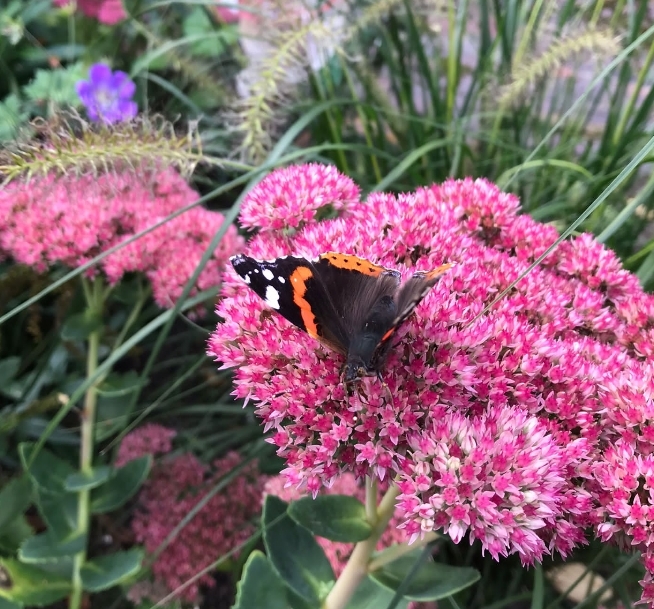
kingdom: Animalia
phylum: Arthropoda
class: Insecta
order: Lepidoptera
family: Nymphalidae
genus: Vanessa
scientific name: Vanessa atalanta
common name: Red admiral
